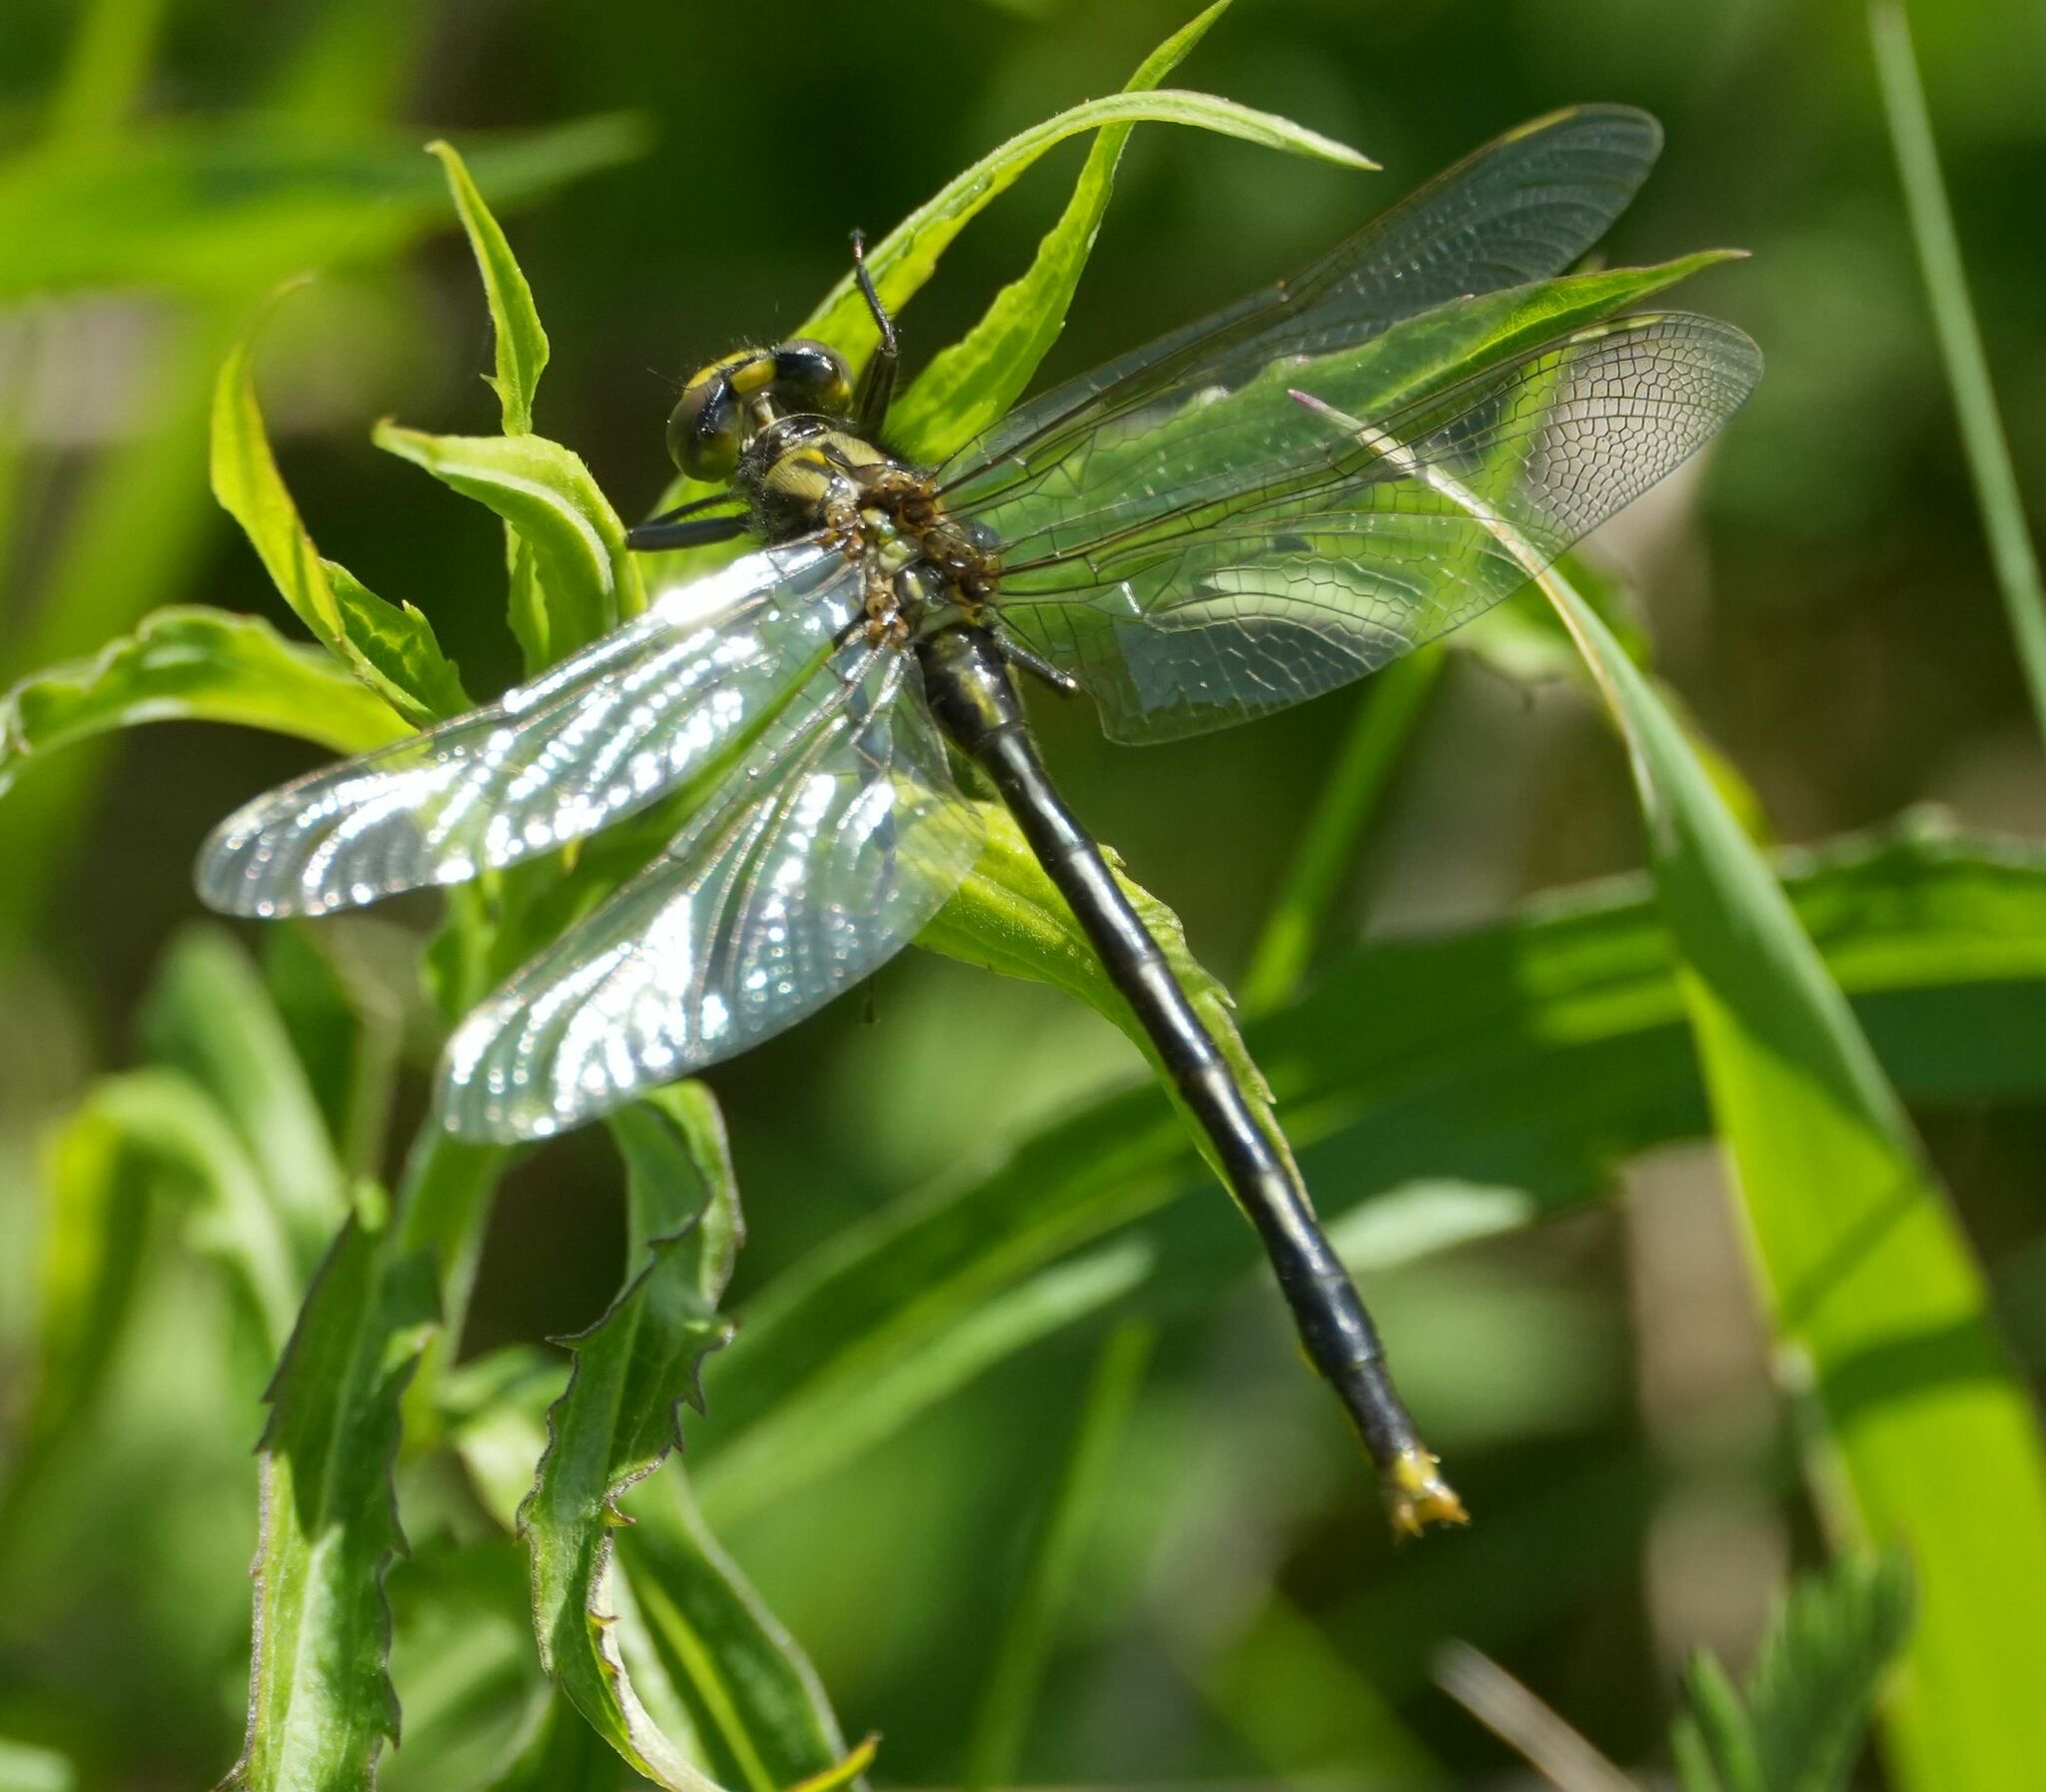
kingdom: Animalia
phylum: Arthropoda
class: Insecta
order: Odonata
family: Gomphidae
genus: Arigomphus
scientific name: Arigomphus furcifer
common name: Lilypad clubtail
